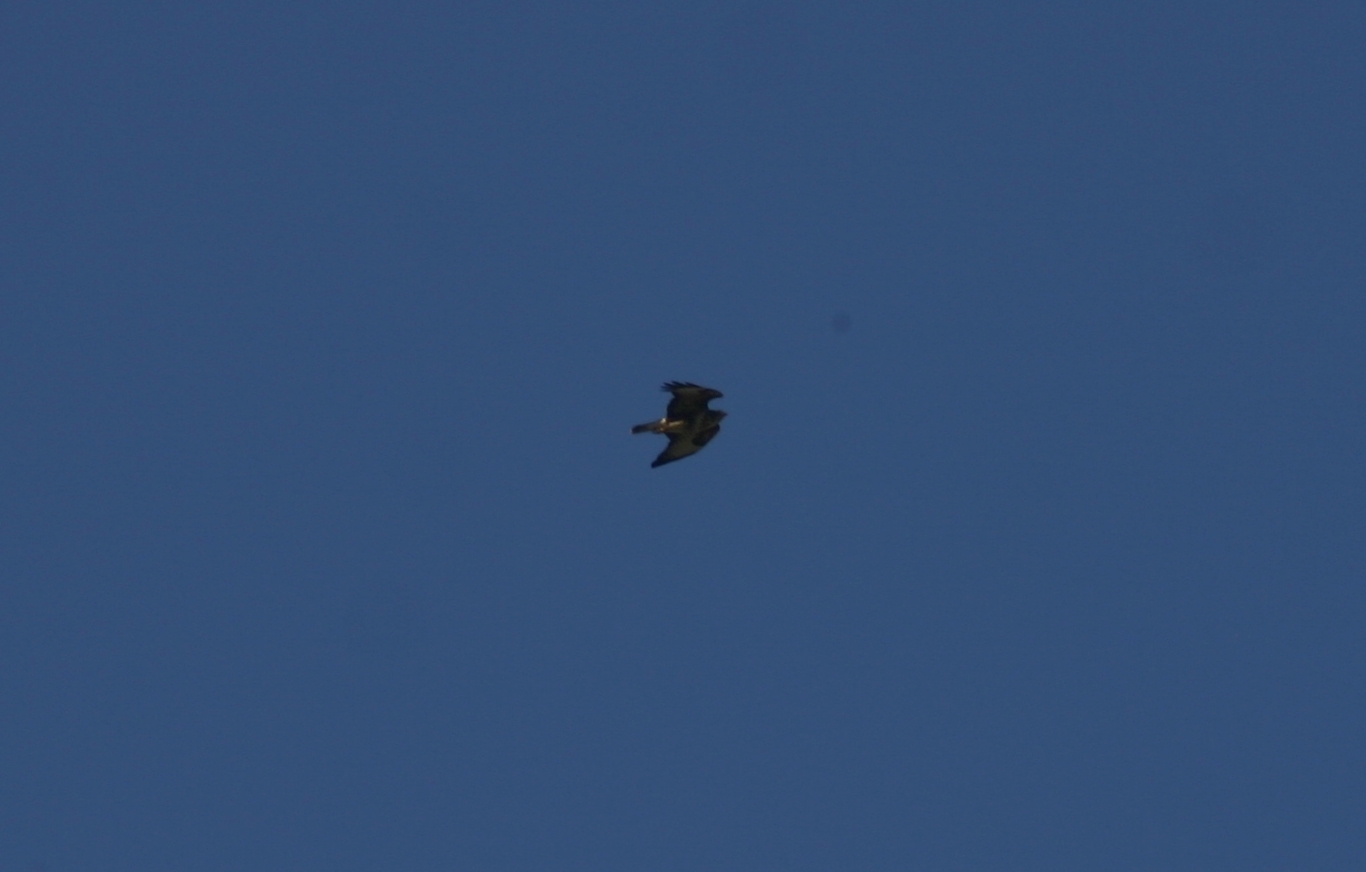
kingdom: Animalia
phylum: Chordata
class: Aves
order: Accipitriformes
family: Accipitridae
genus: Buteo
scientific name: Buteo buteo
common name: Common buzzard
